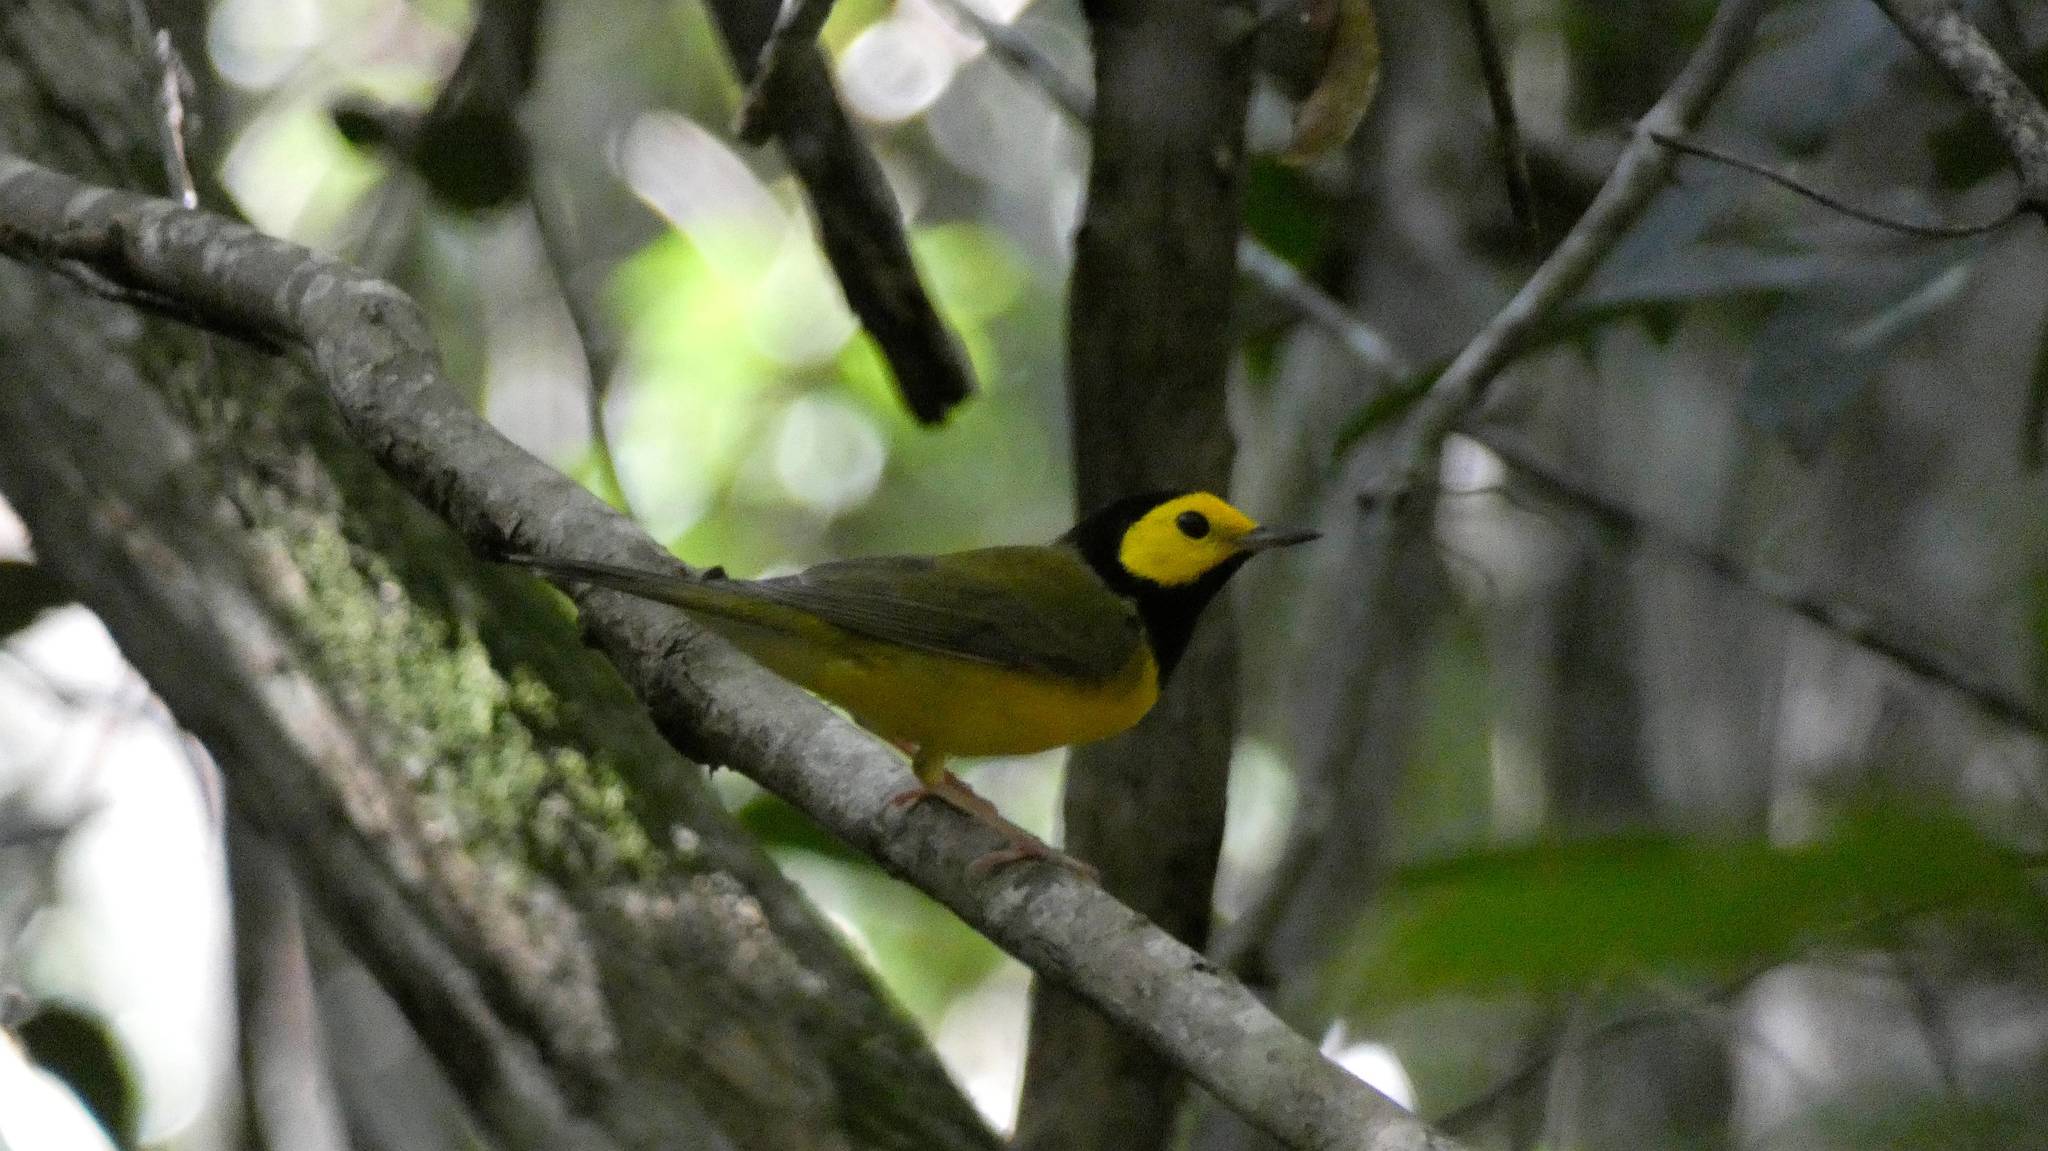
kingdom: Animalia
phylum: Chordata
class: Aves
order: Passeriformes
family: Parulidae
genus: Setophaga
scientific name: Setophaga citrina
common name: Hooded warbler
